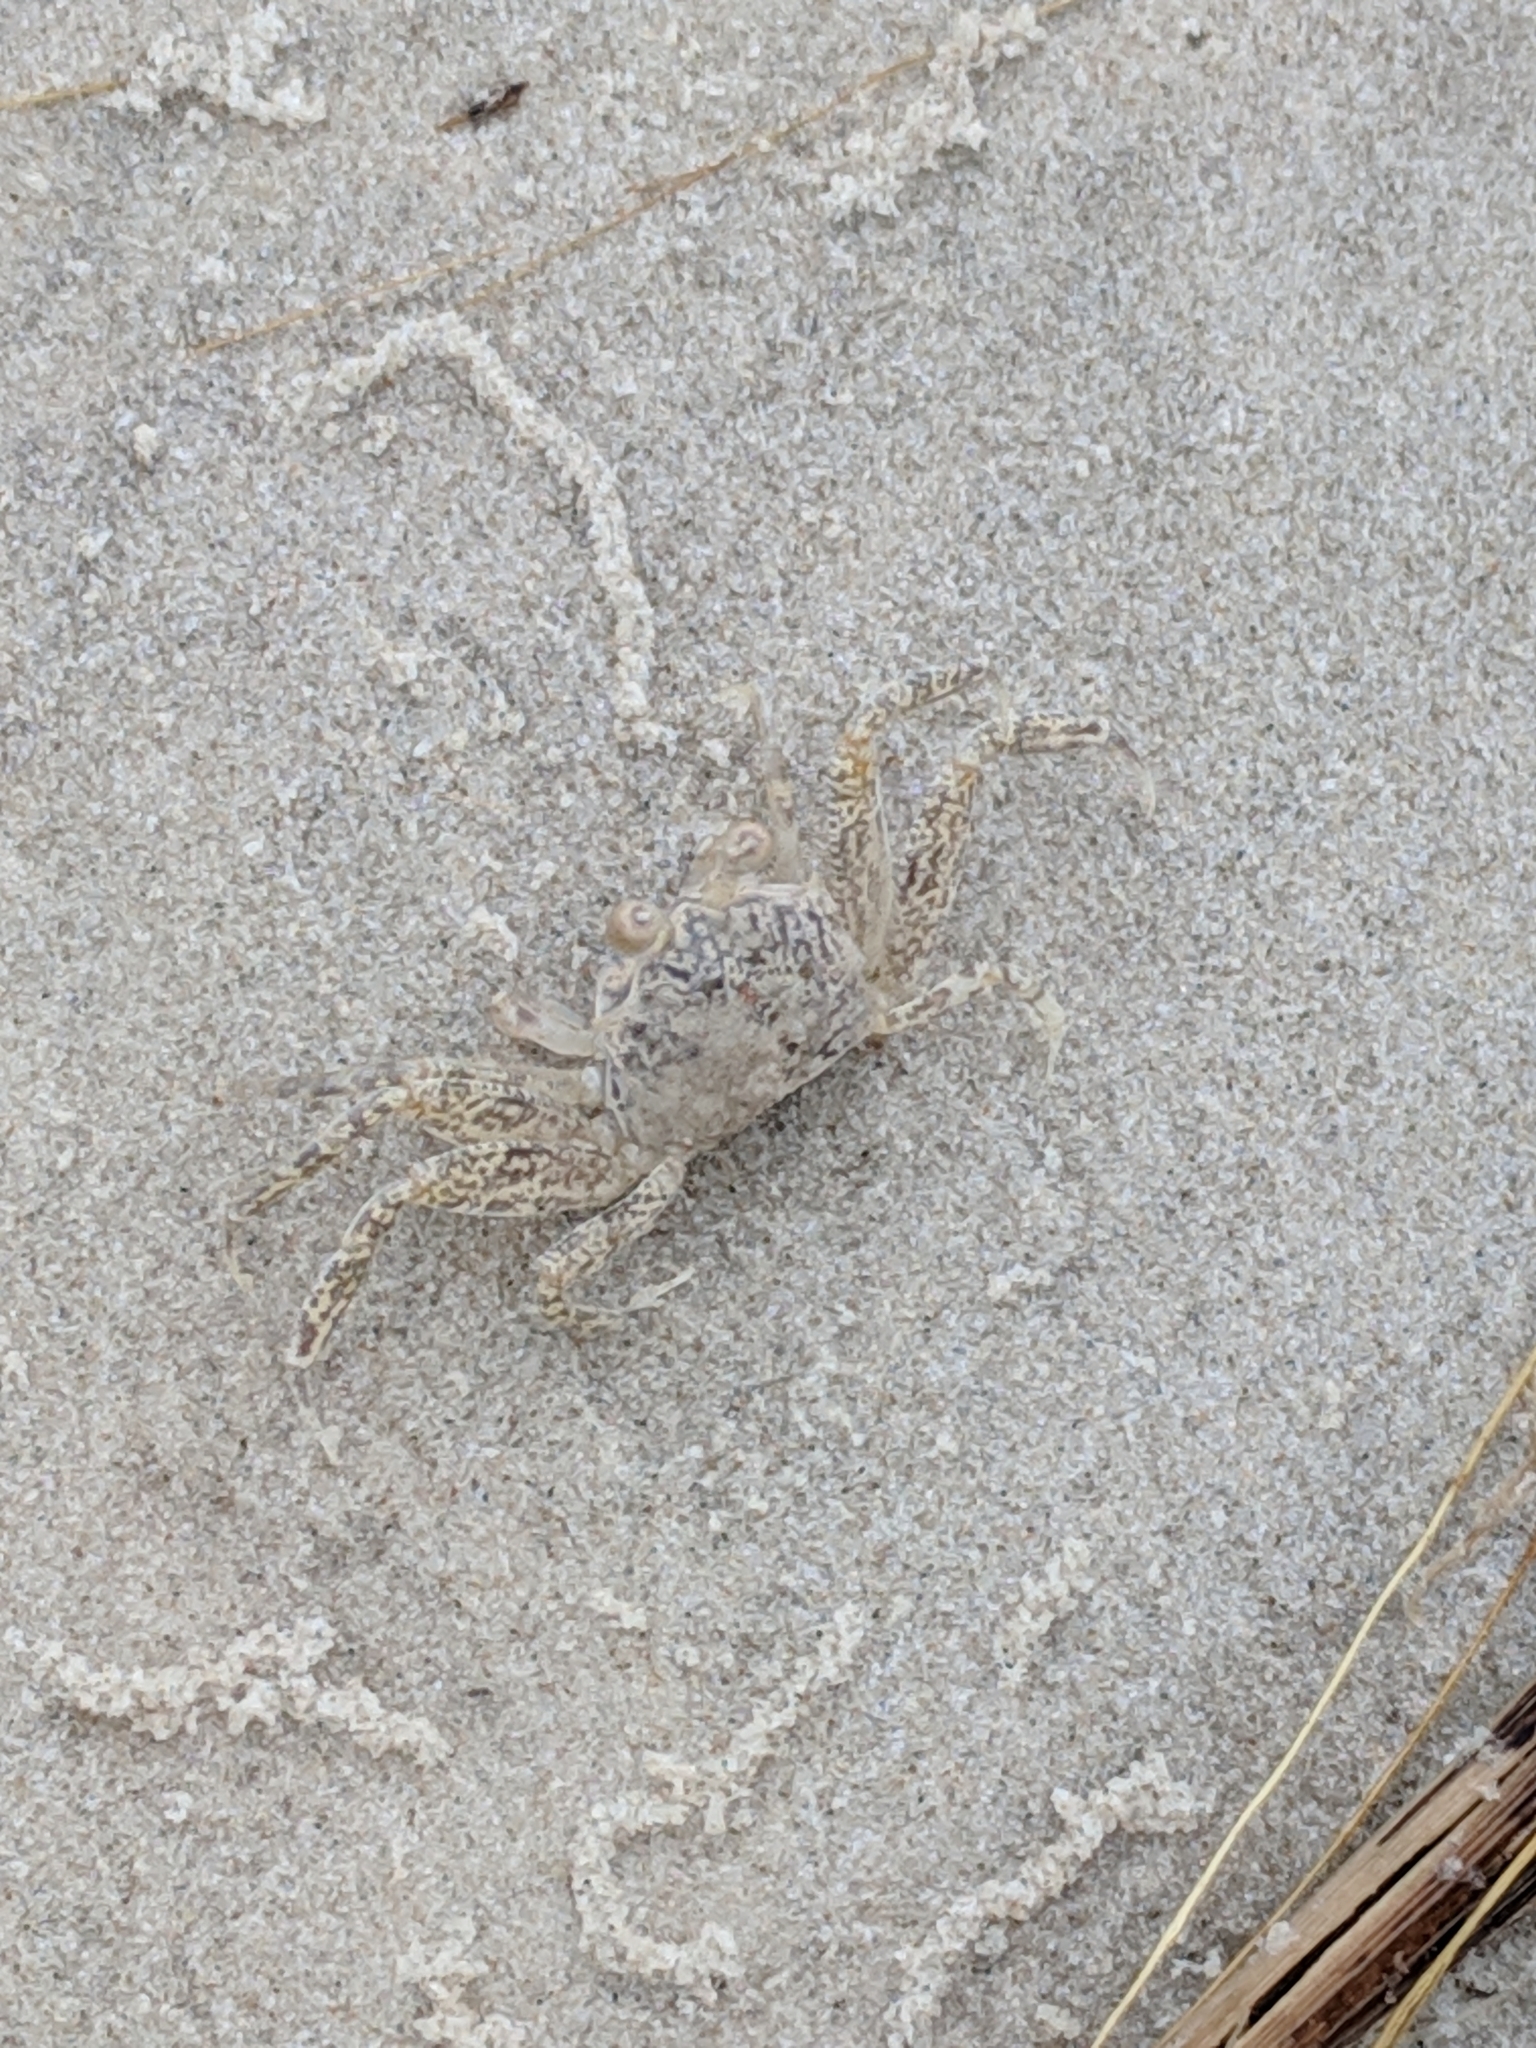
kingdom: Animalia
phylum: Arthropoda
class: Malacostraca
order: Decapoda
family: Ocypodidae
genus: Ocypode
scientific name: Ocypode quadrata
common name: Ghost crab
